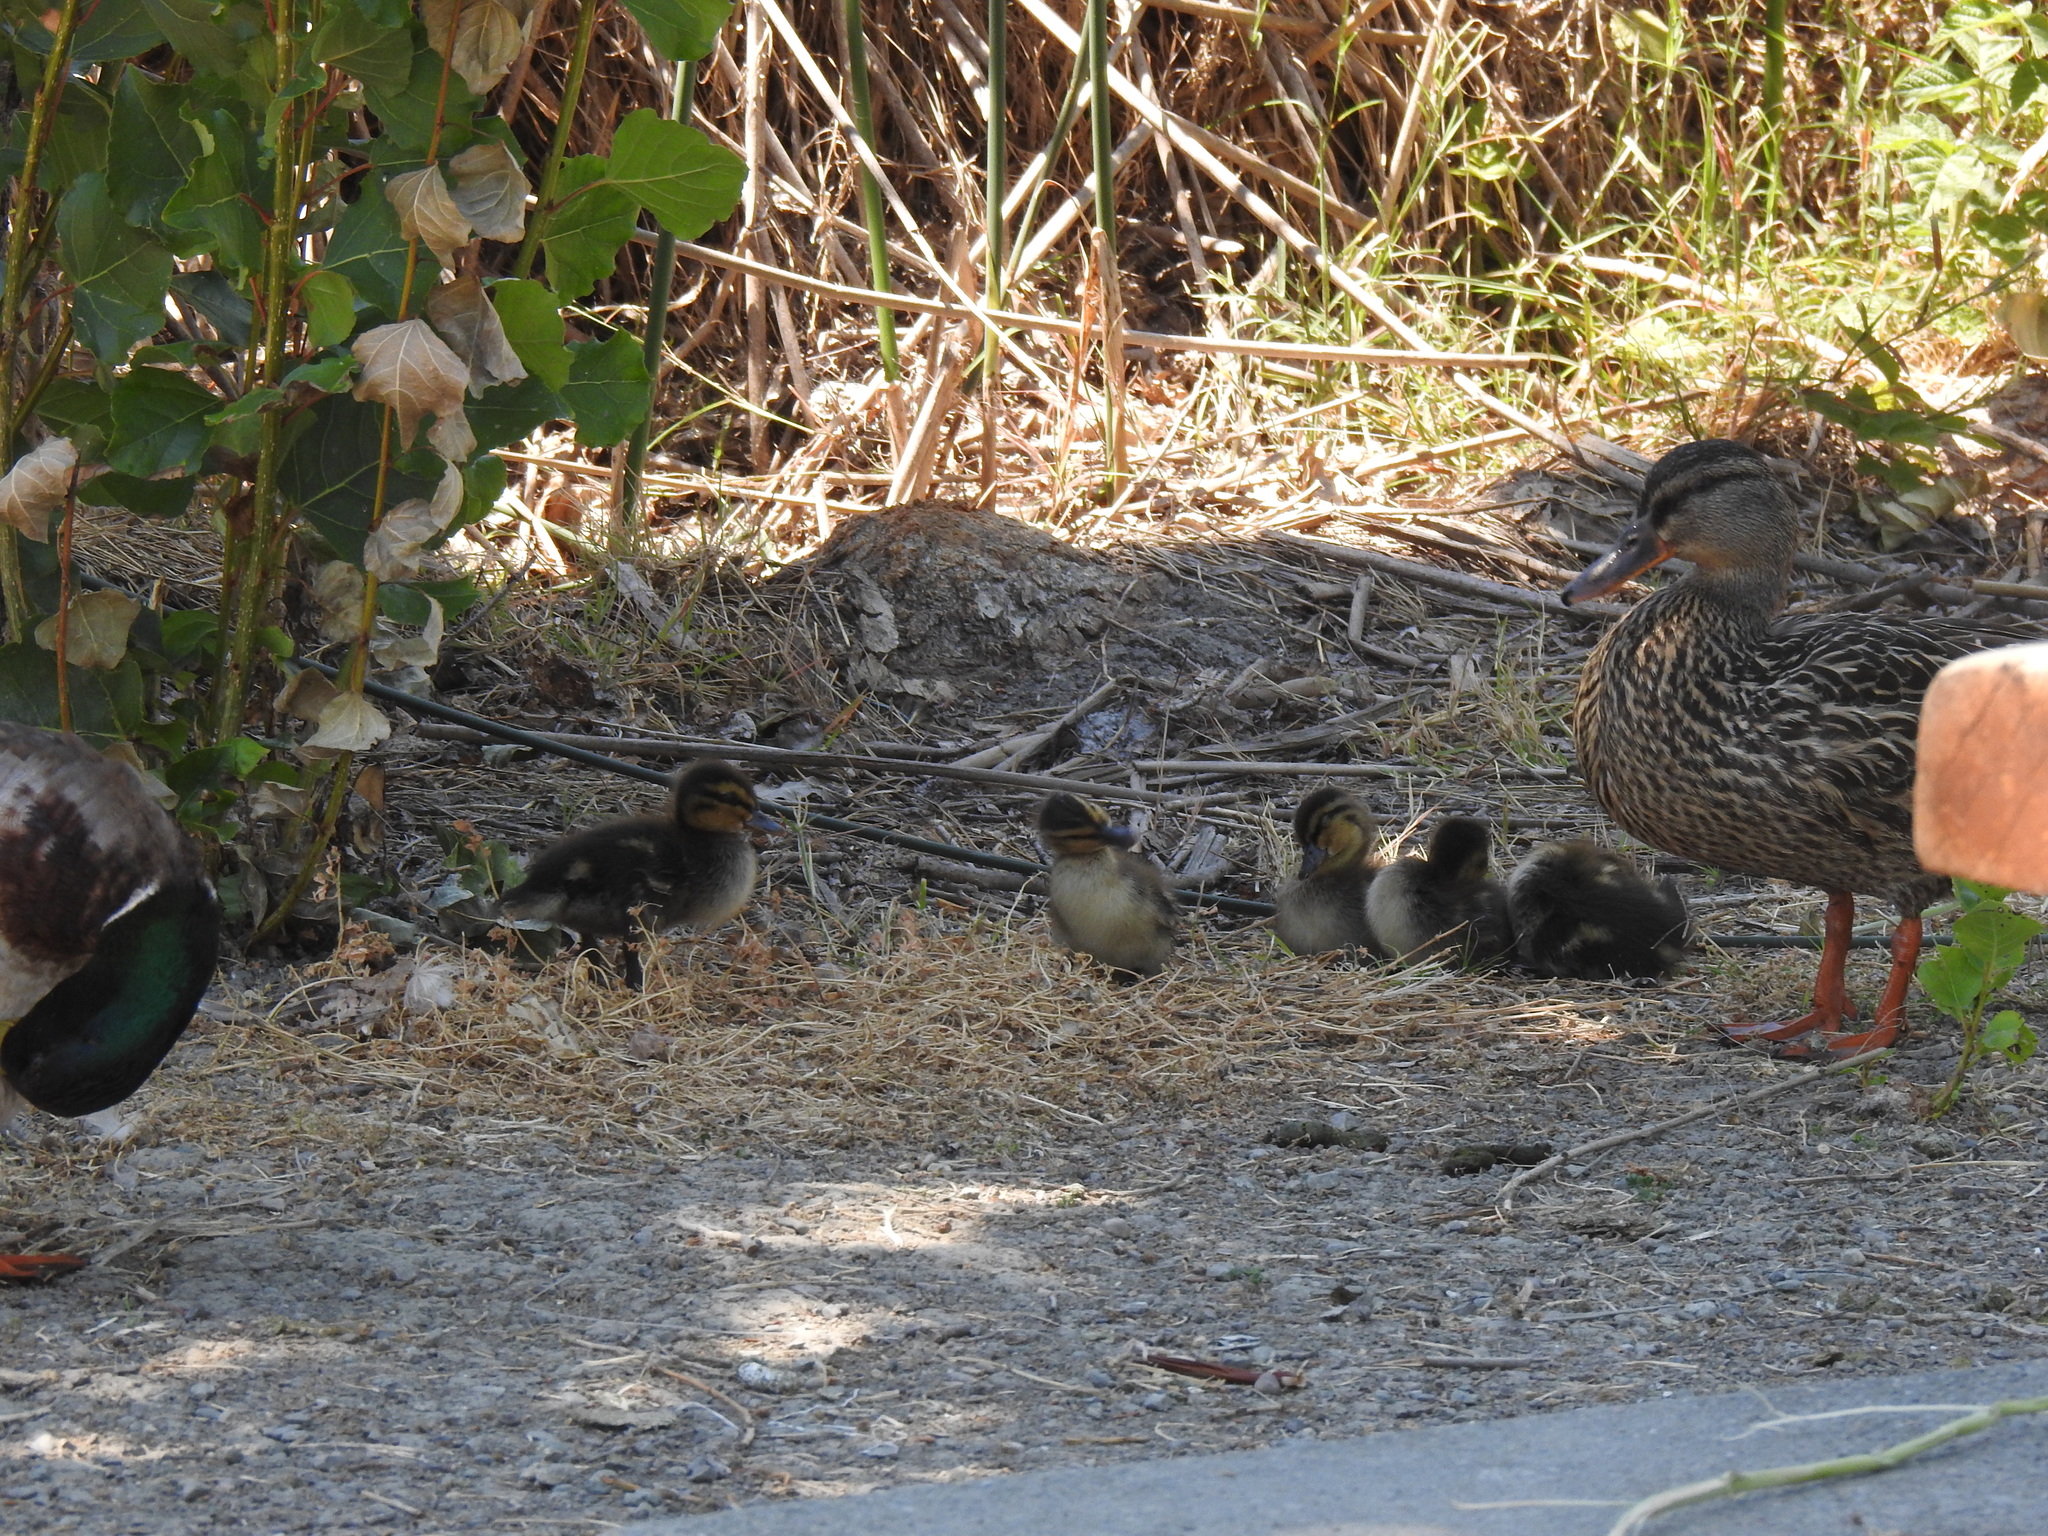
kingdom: Animalia
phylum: Chordata
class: Aves
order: Anseriformes
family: Anatidae
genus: Anas
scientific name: Anas platyrhynchos
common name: Mallard
